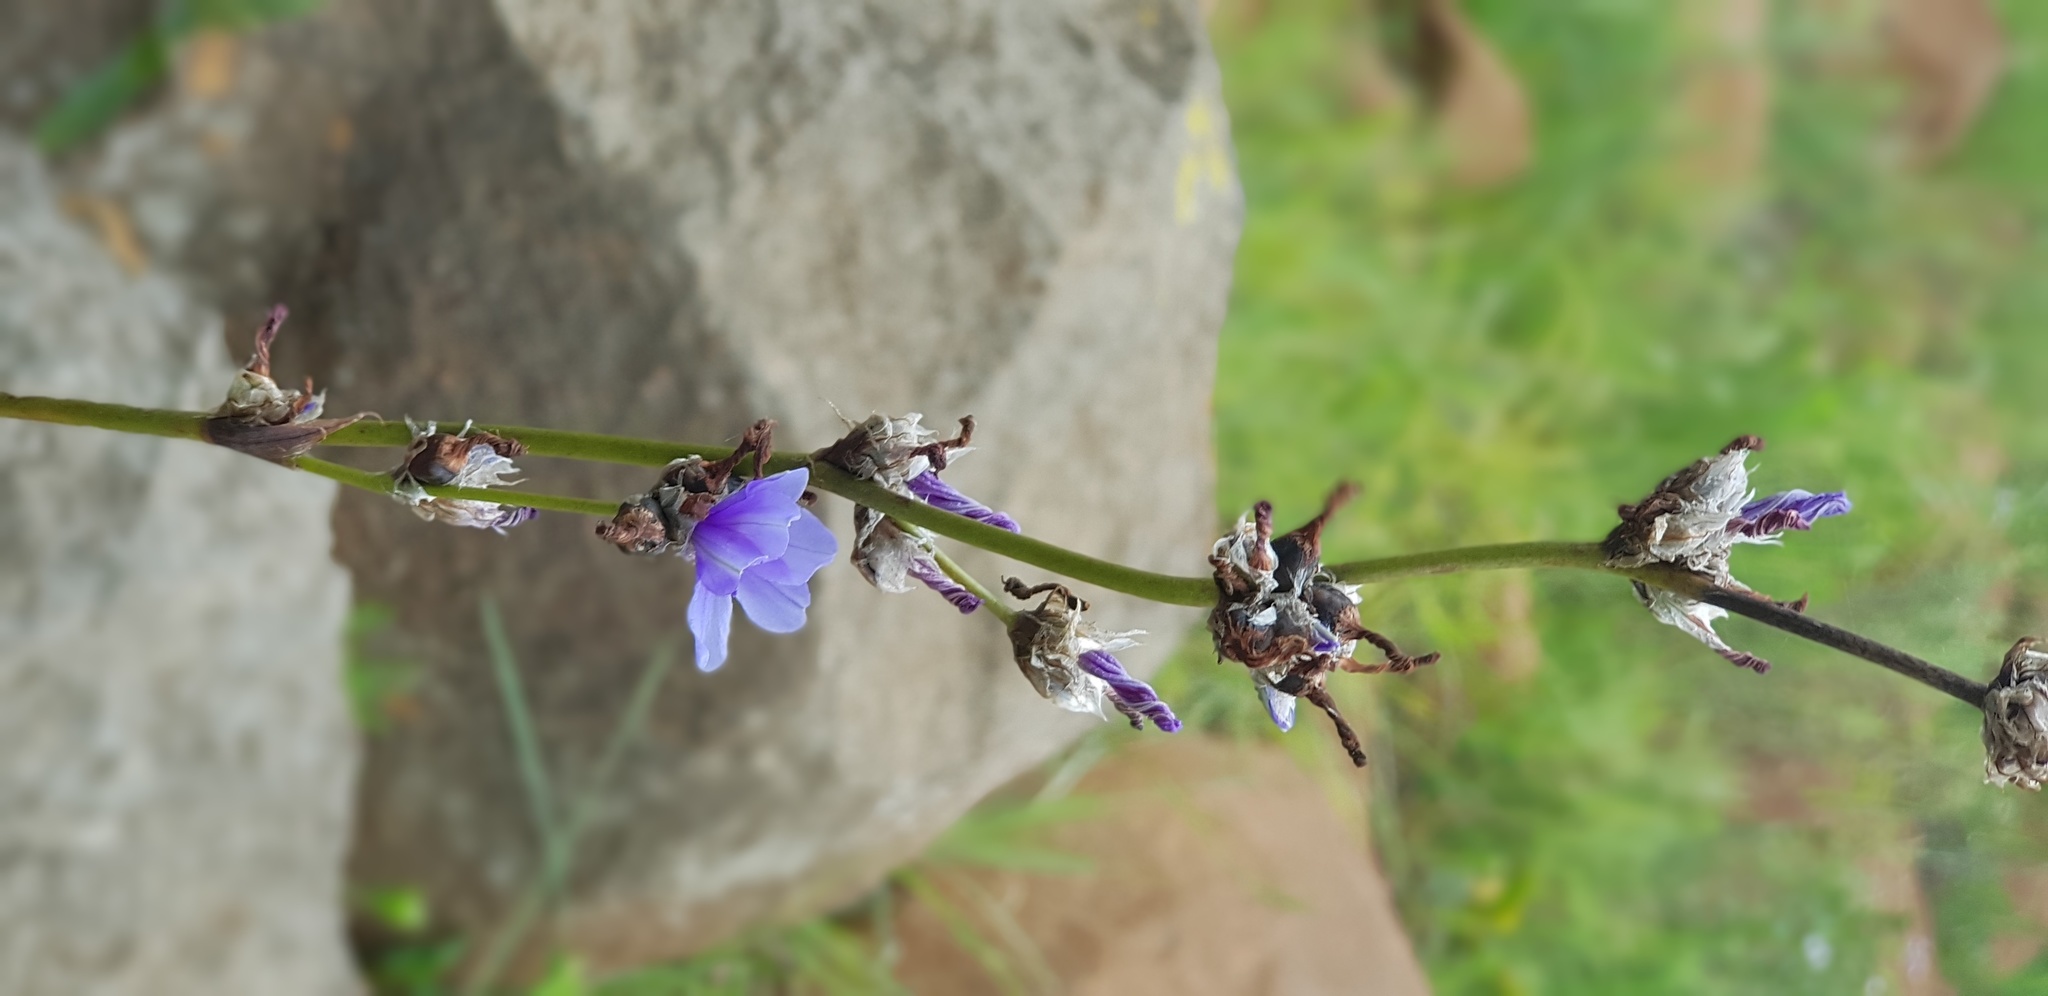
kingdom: Plantae
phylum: Tracheophyta
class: Liliopsida
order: Asparagales
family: Iridaceae
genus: Aristea
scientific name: Aristea torulosa
